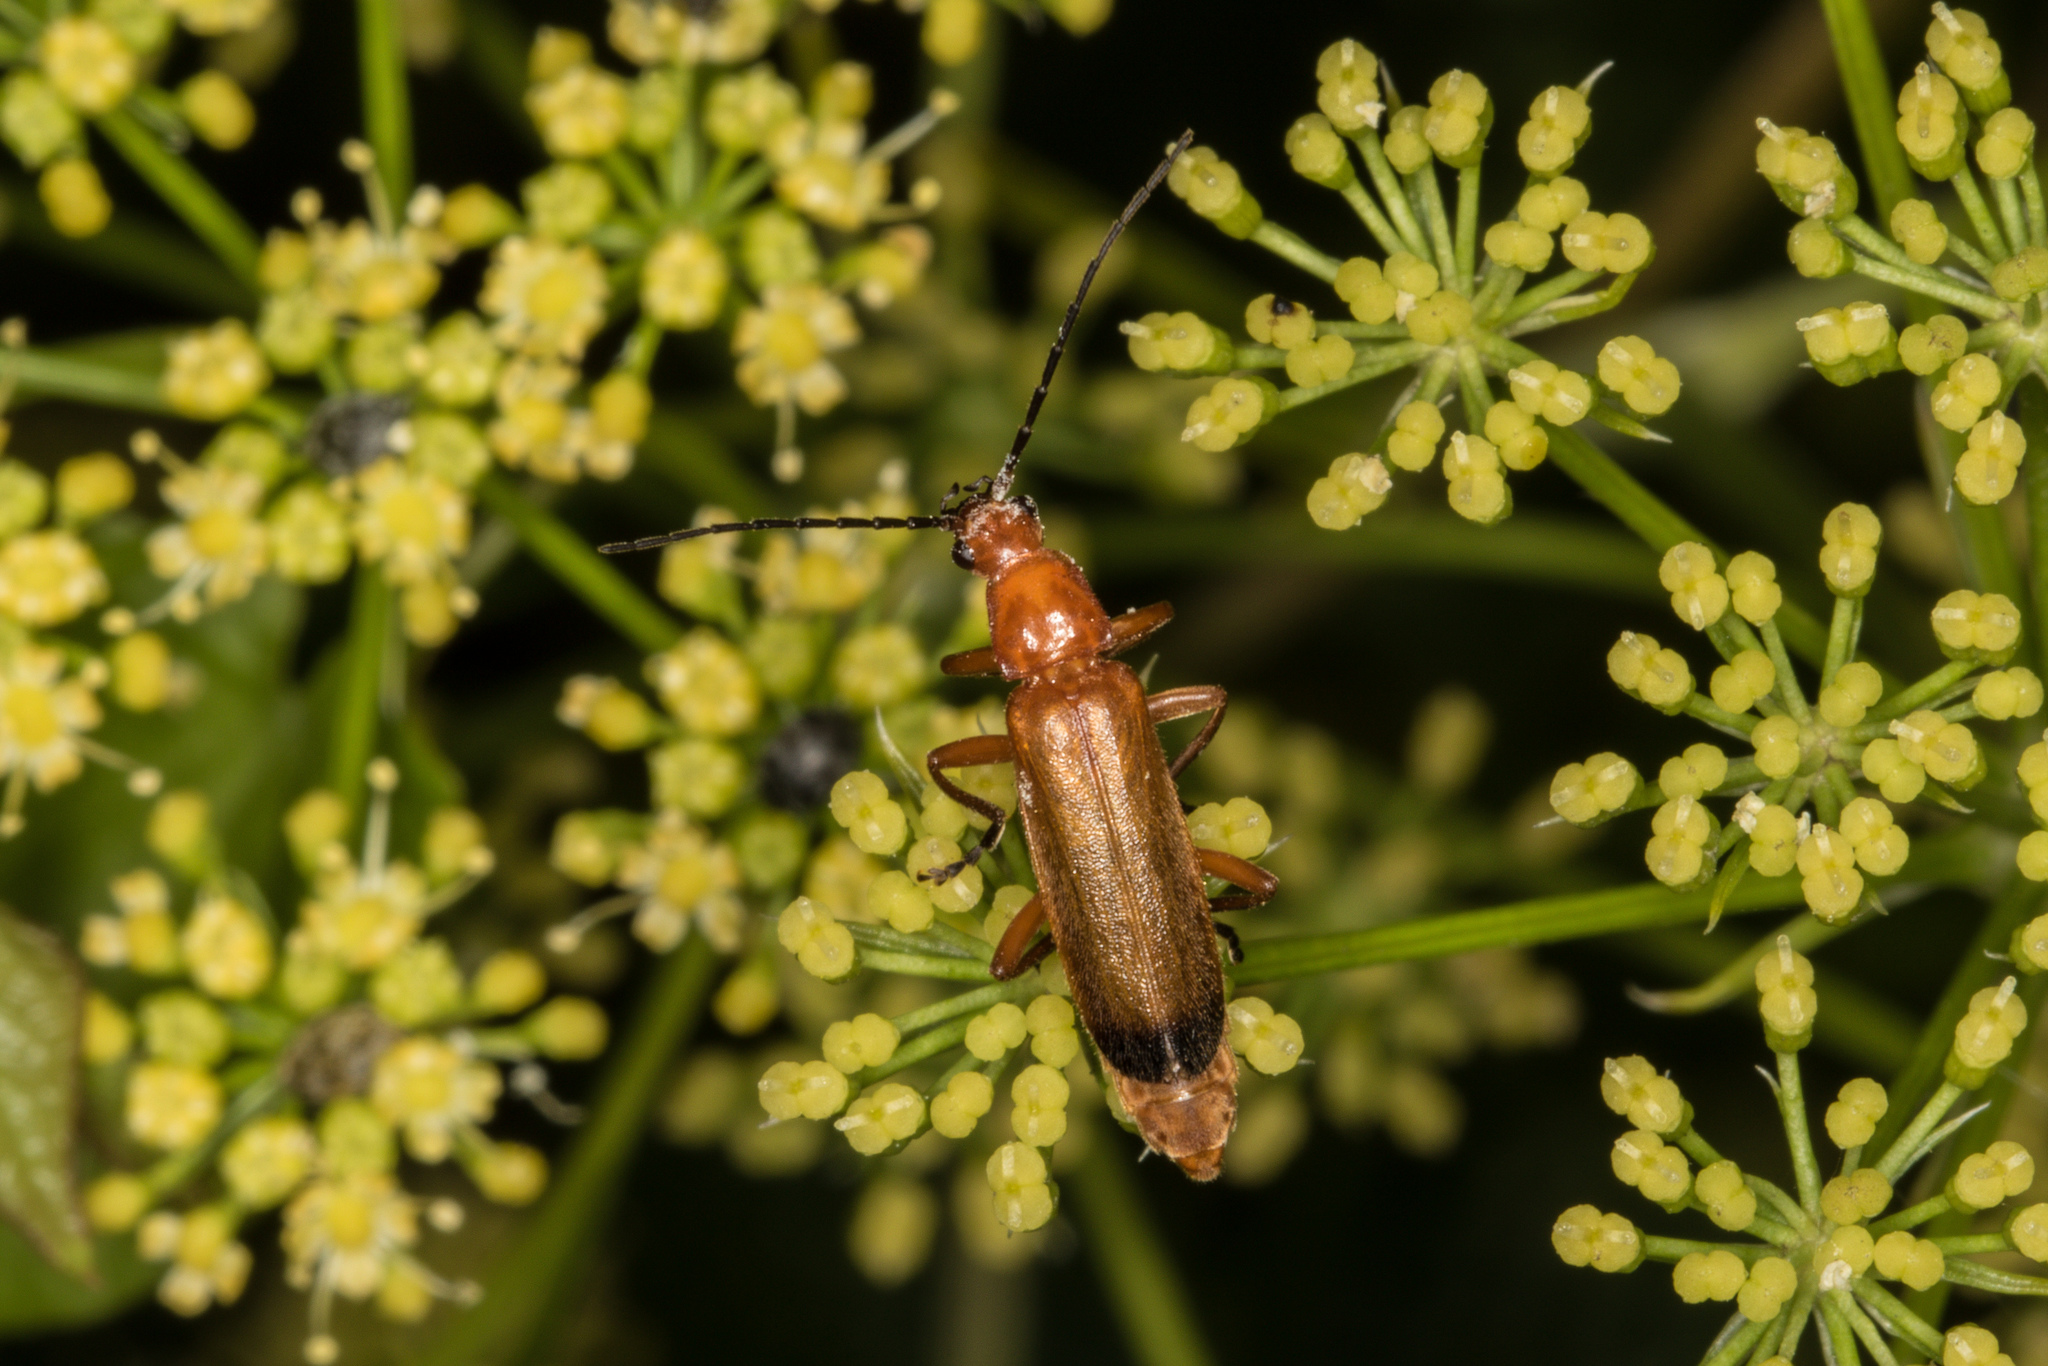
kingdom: Animalia
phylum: Arthropoda
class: Insecta
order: Coleoptera
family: Cantharidae
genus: Rhagonycha
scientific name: Rhagonycha fulva
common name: Common red soldier beetle
